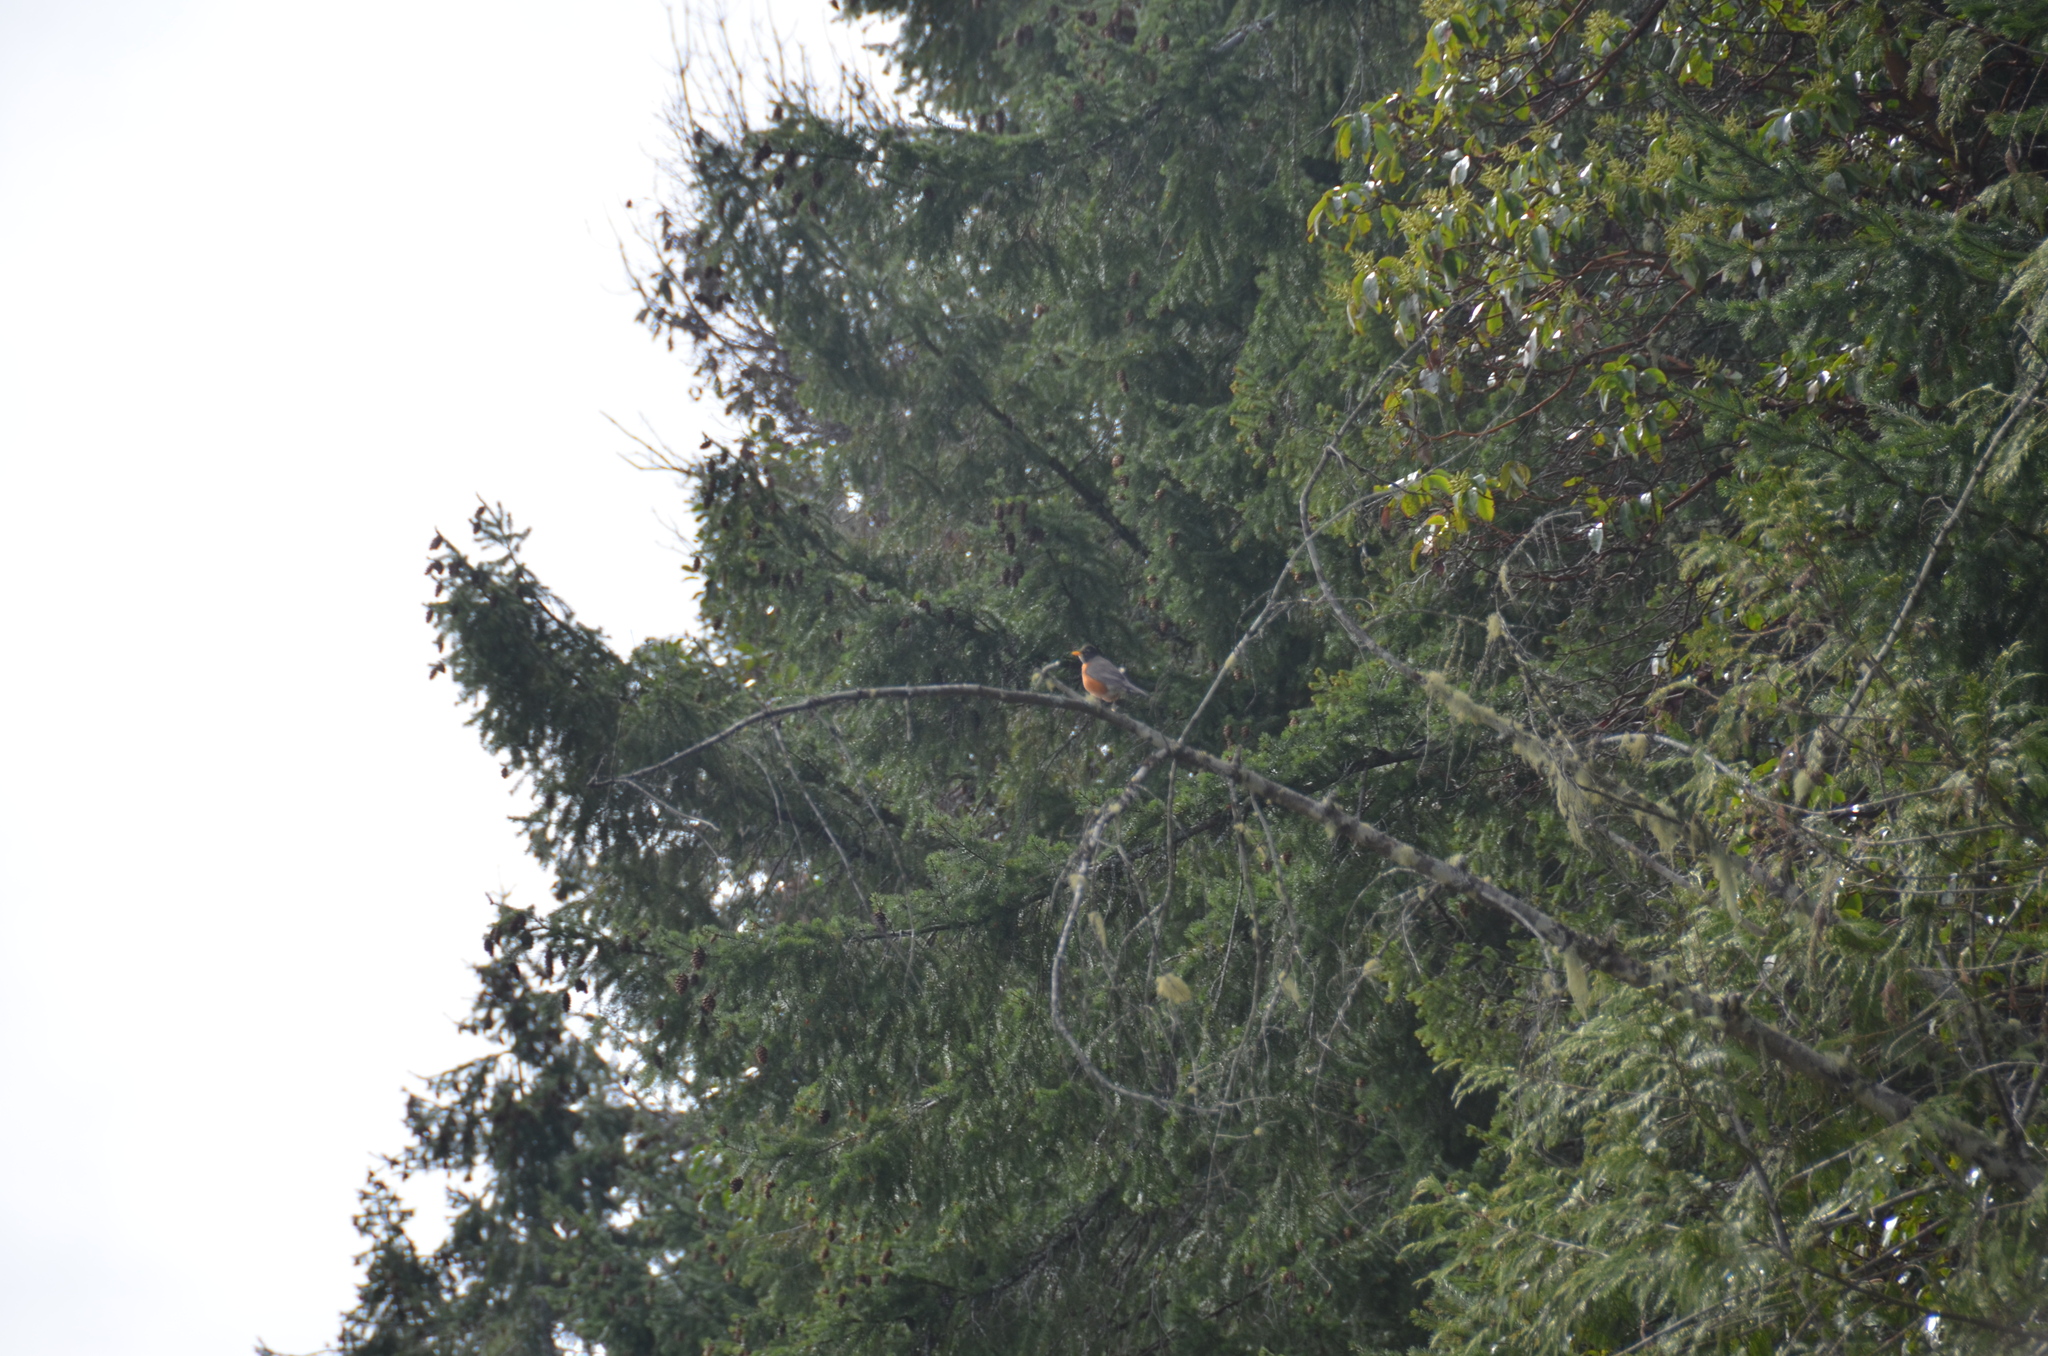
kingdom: Animalia
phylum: Chordata
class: Aves
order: Passeriformes
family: Turdidae
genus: Turdus
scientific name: Turdus migratorius
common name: American robin
